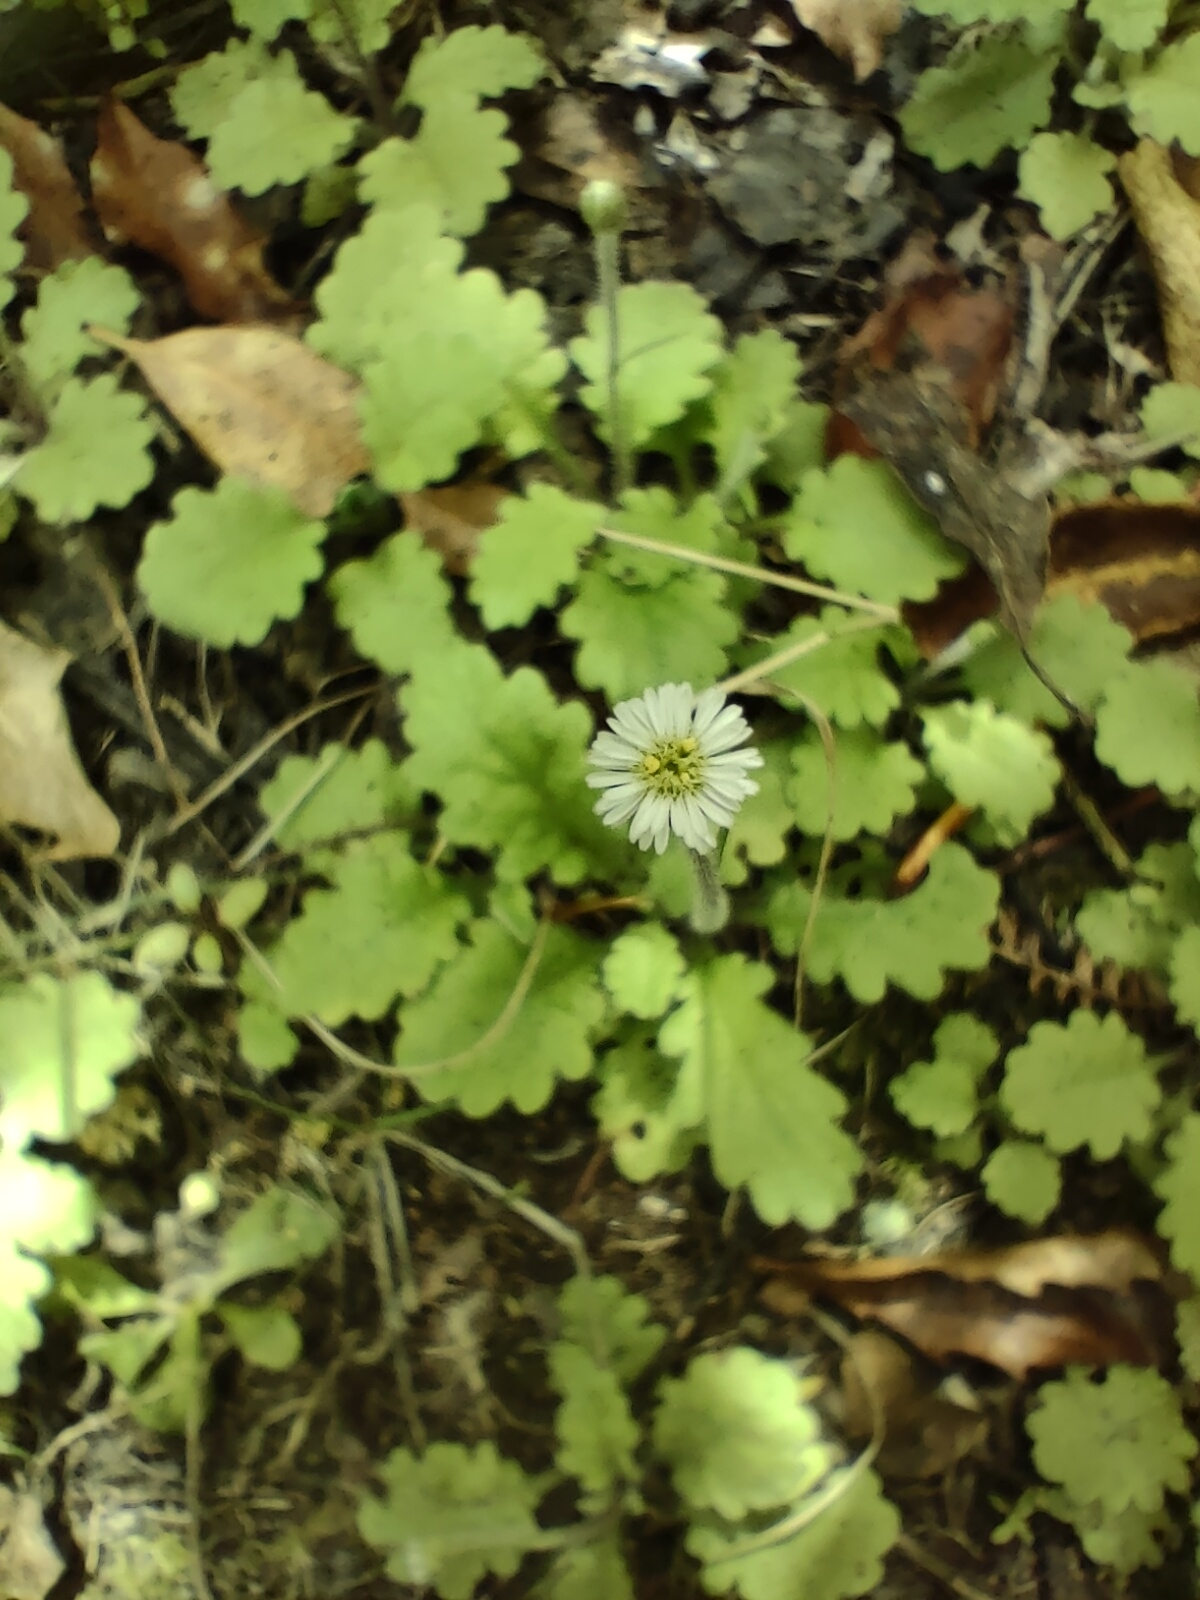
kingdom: Plantae
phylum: Tracheophyta
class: Magnoliopsida
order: Asterales
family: Asteraceae
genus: Lagenophora
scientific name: Lagenophora pinnatifida
